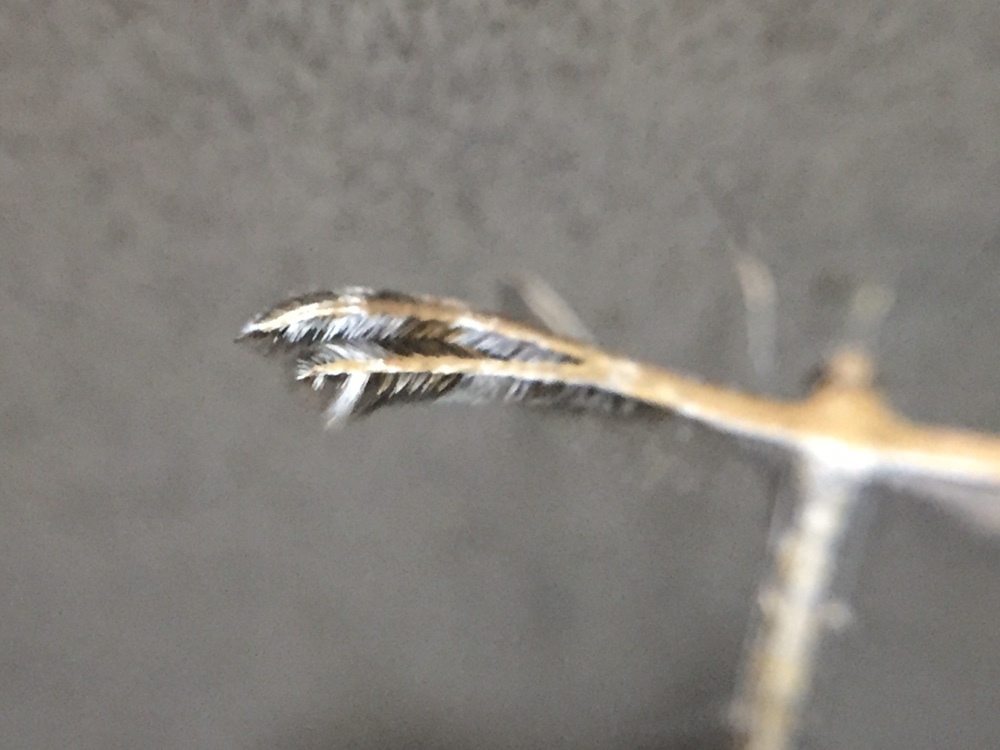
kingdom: Animalia
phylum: Arthropoda
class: Insecta
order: Lepidoptera
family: Pterophoridae
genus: Stangeia
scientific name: Stangeia xerodes
